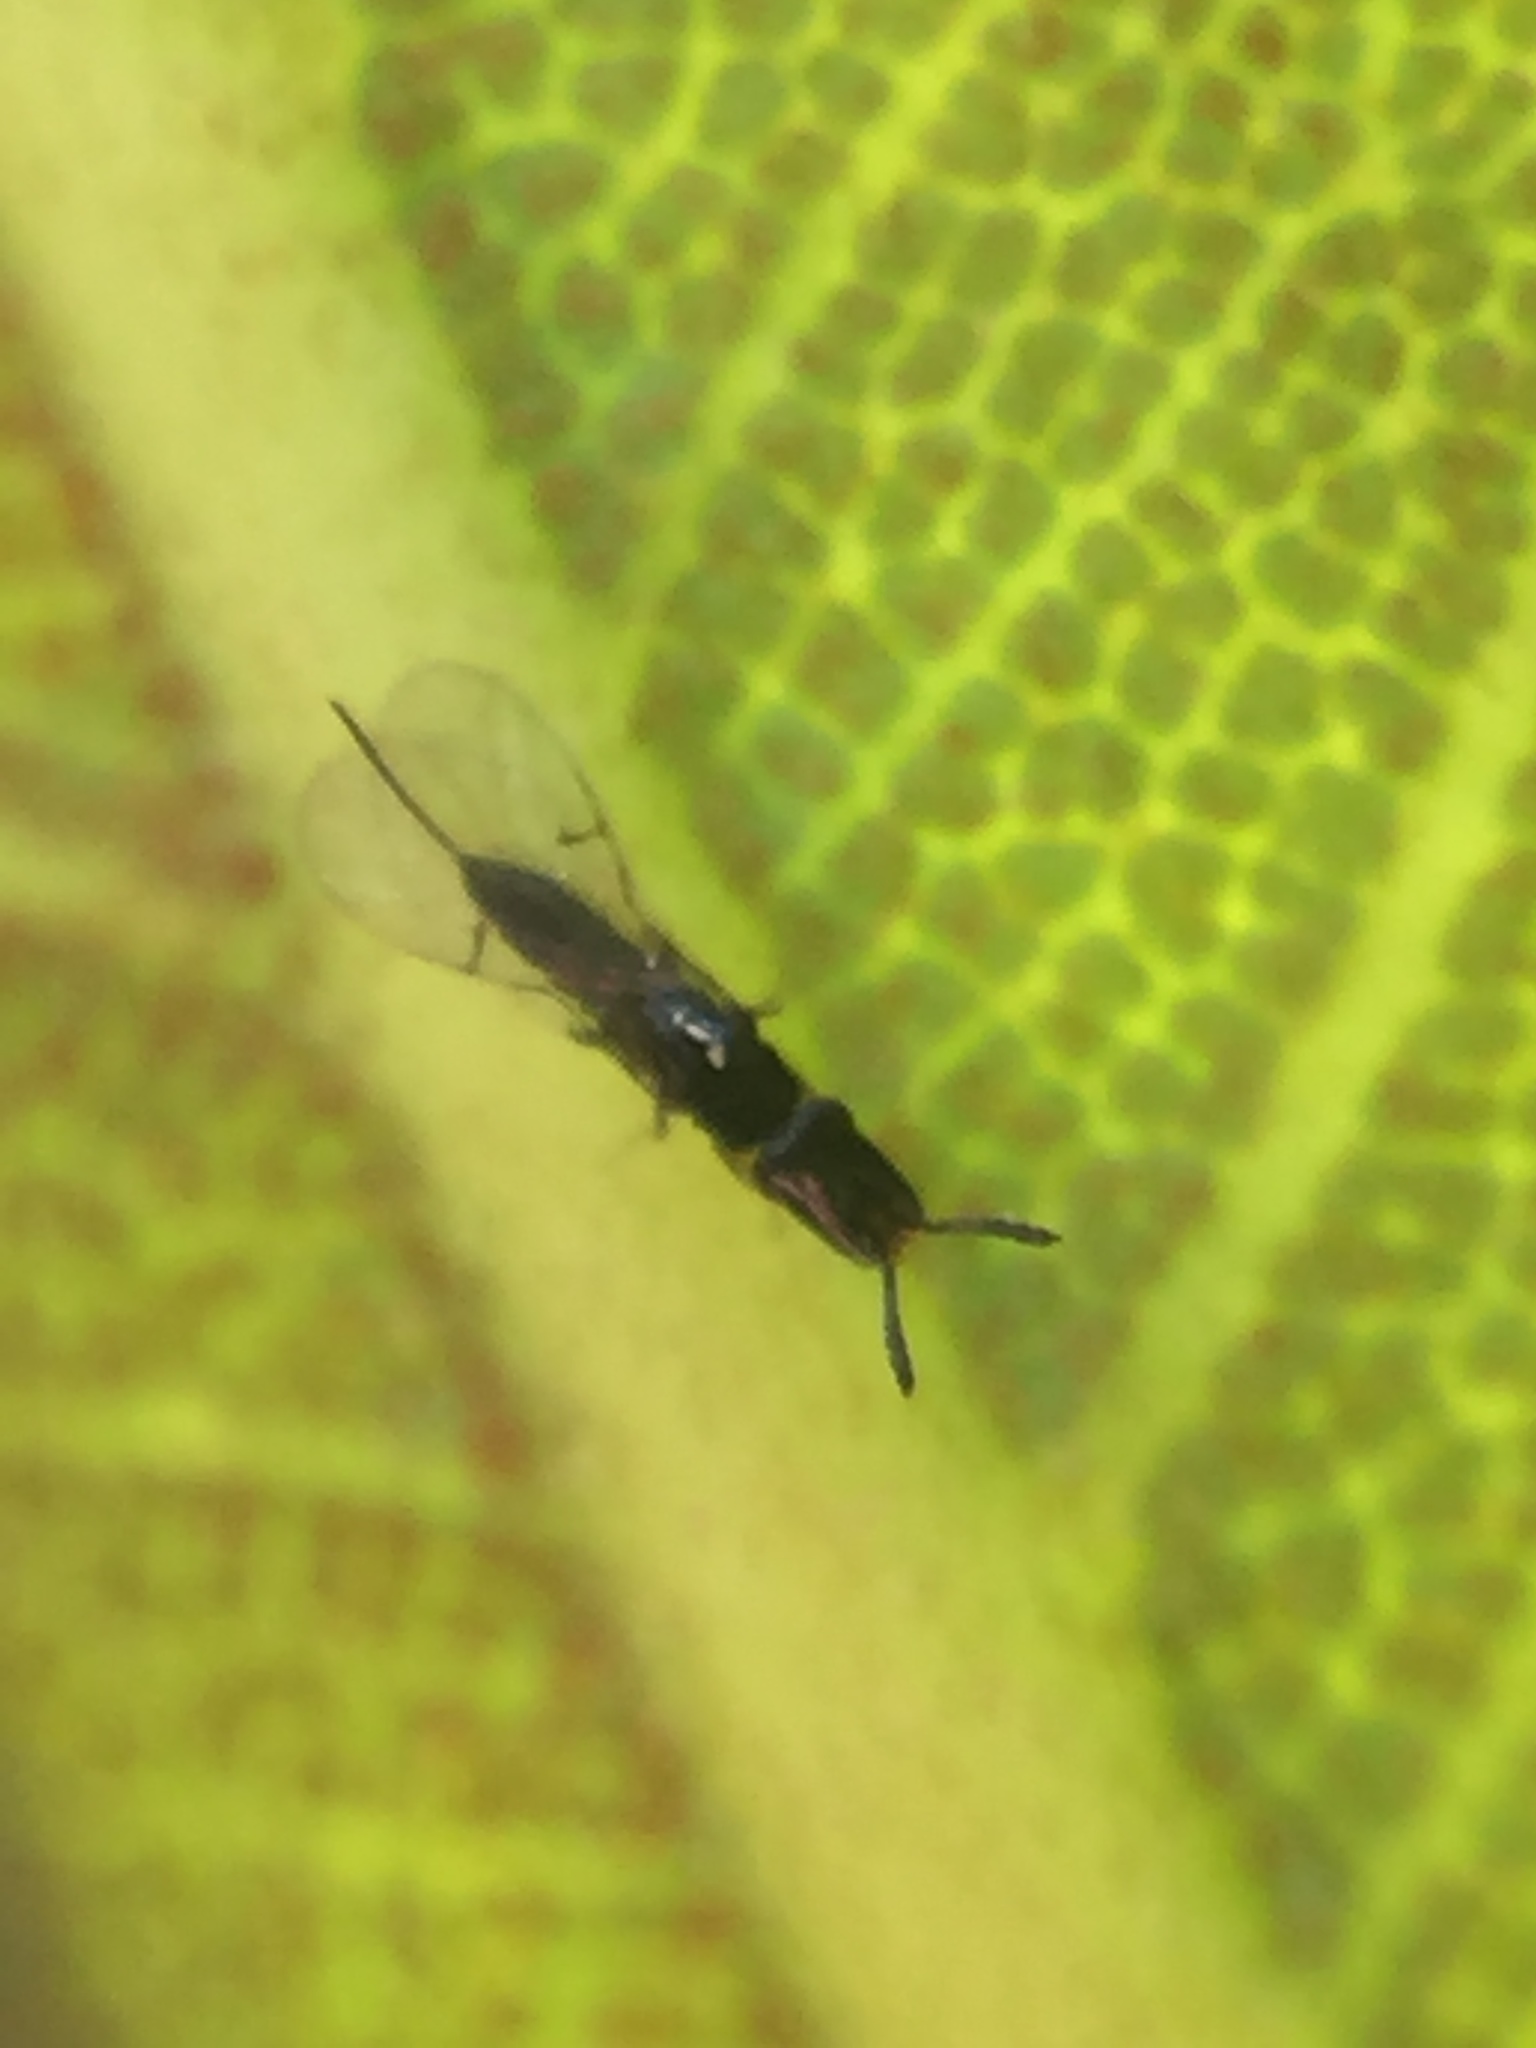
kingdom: Animalia
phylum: Arthropoda
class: Insecta
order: Hymenoptera
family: Agaonidae
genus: Pleistodontes
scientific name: Pleistodontes imperialis
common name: Fig wasp
